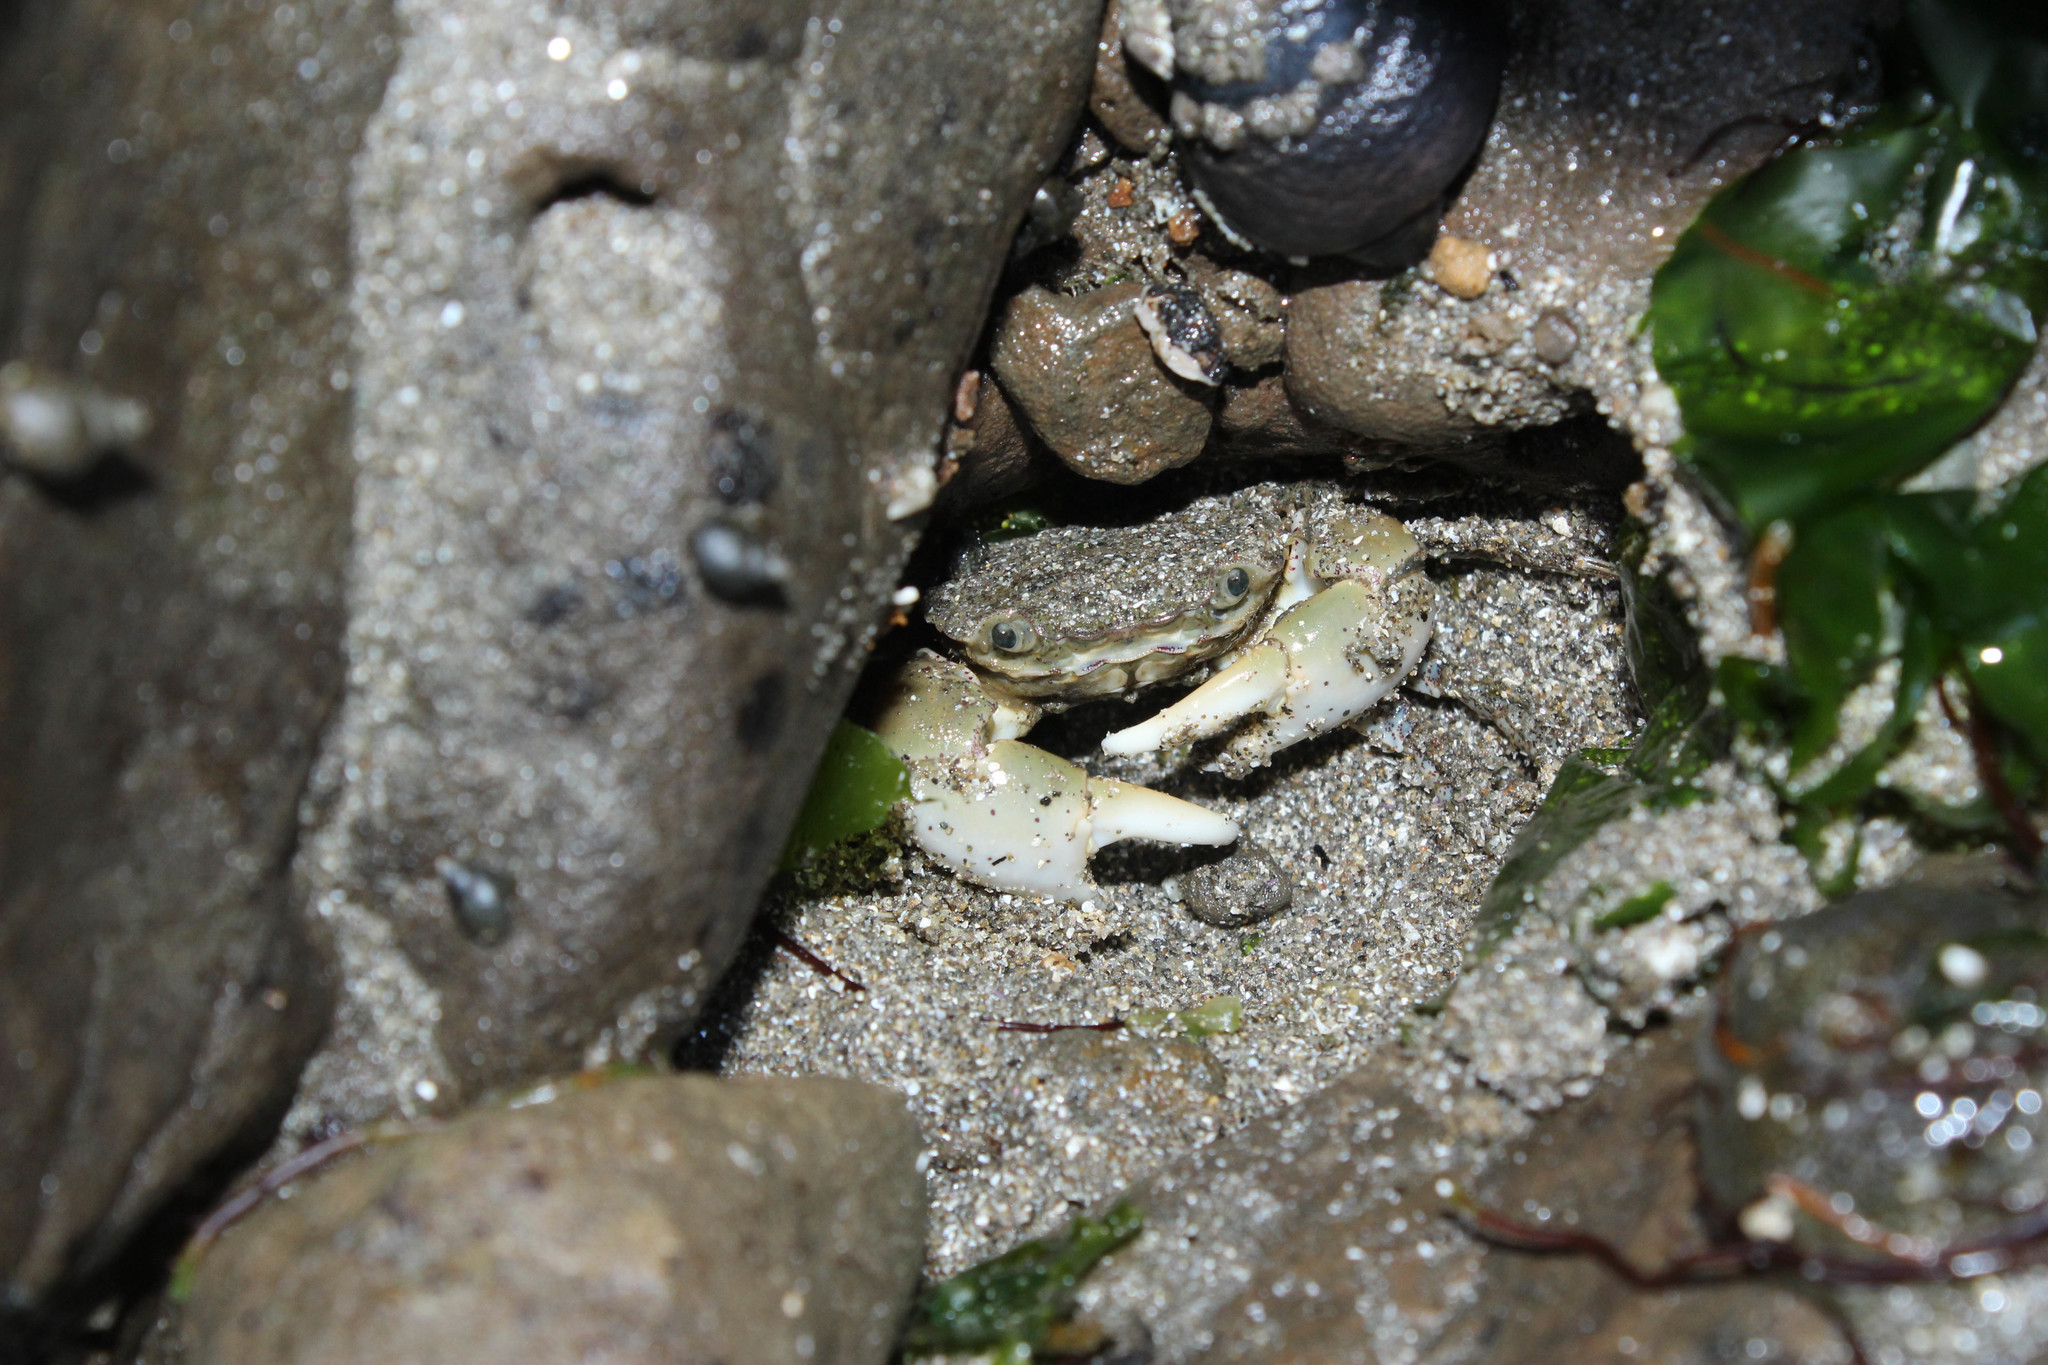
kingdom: Animalia
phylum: Arthropoda
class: Malacostraca
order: Decapoda
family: Varunidae
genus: Hemigrapsus
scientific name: Hemigrapsus oregonensis
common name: Yellow shore crab
